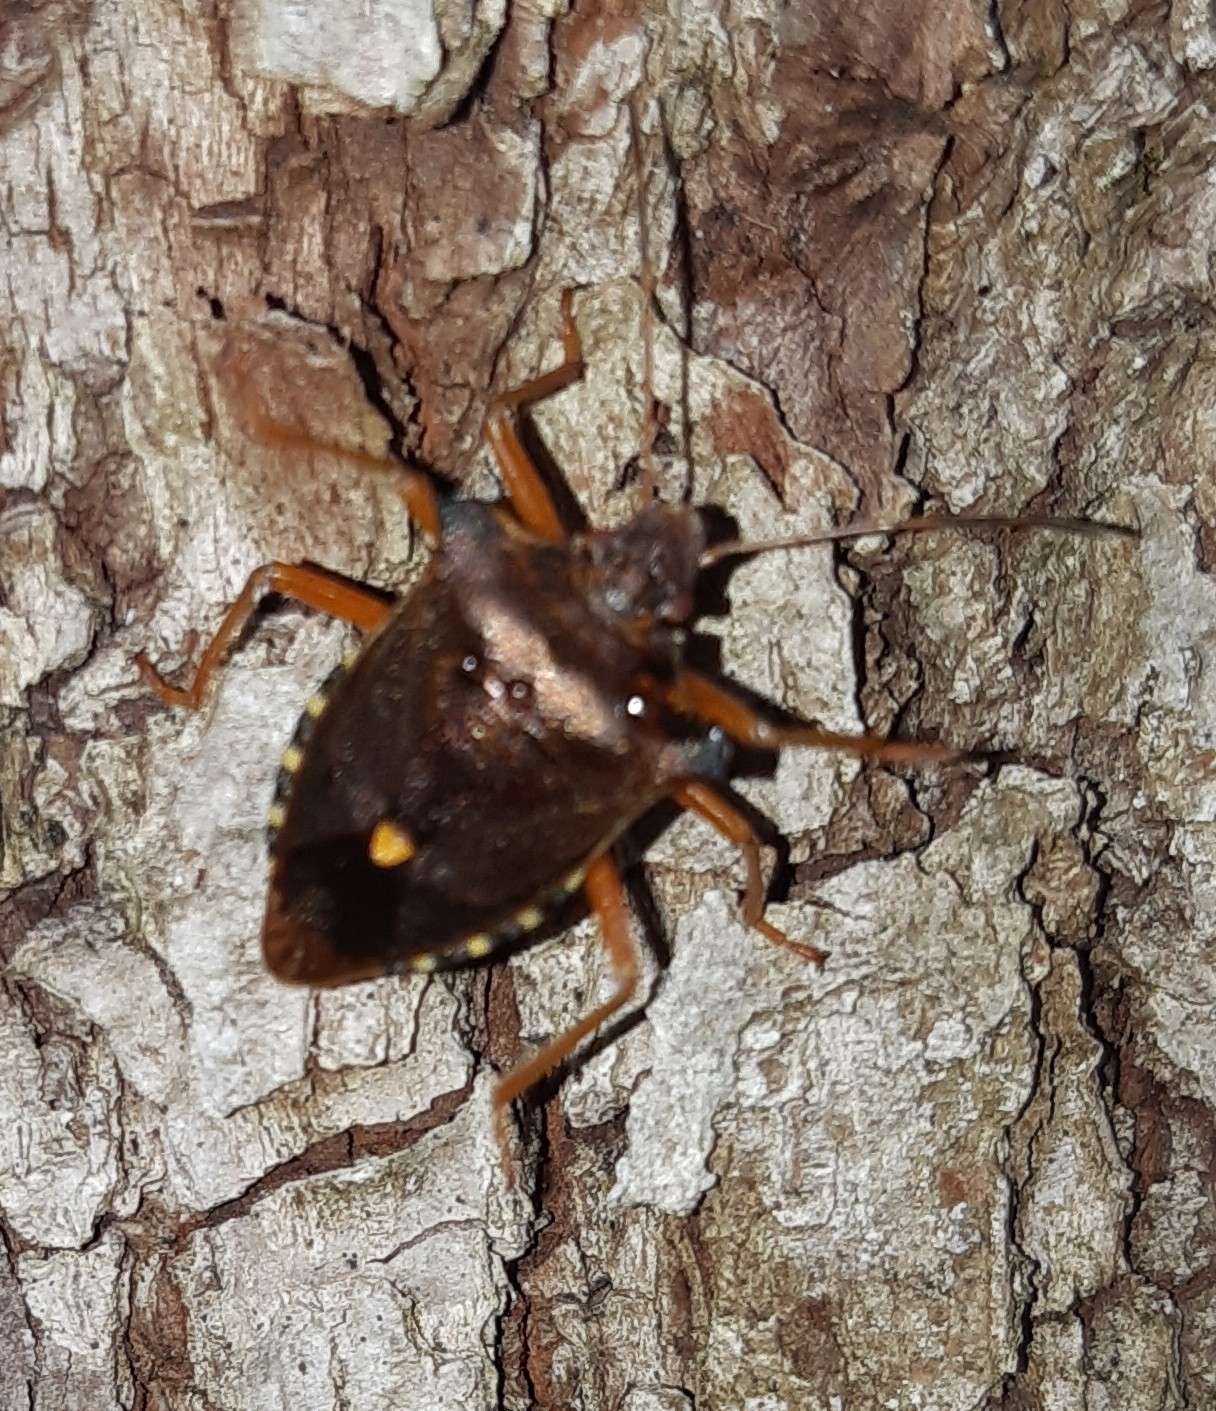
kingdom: Animalia
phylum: Arthropoda
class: Insecta
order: Hemiptera
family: Pentatomidae
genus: Pentatoma
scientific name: Pentatoma rufipes
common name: Forest bug
